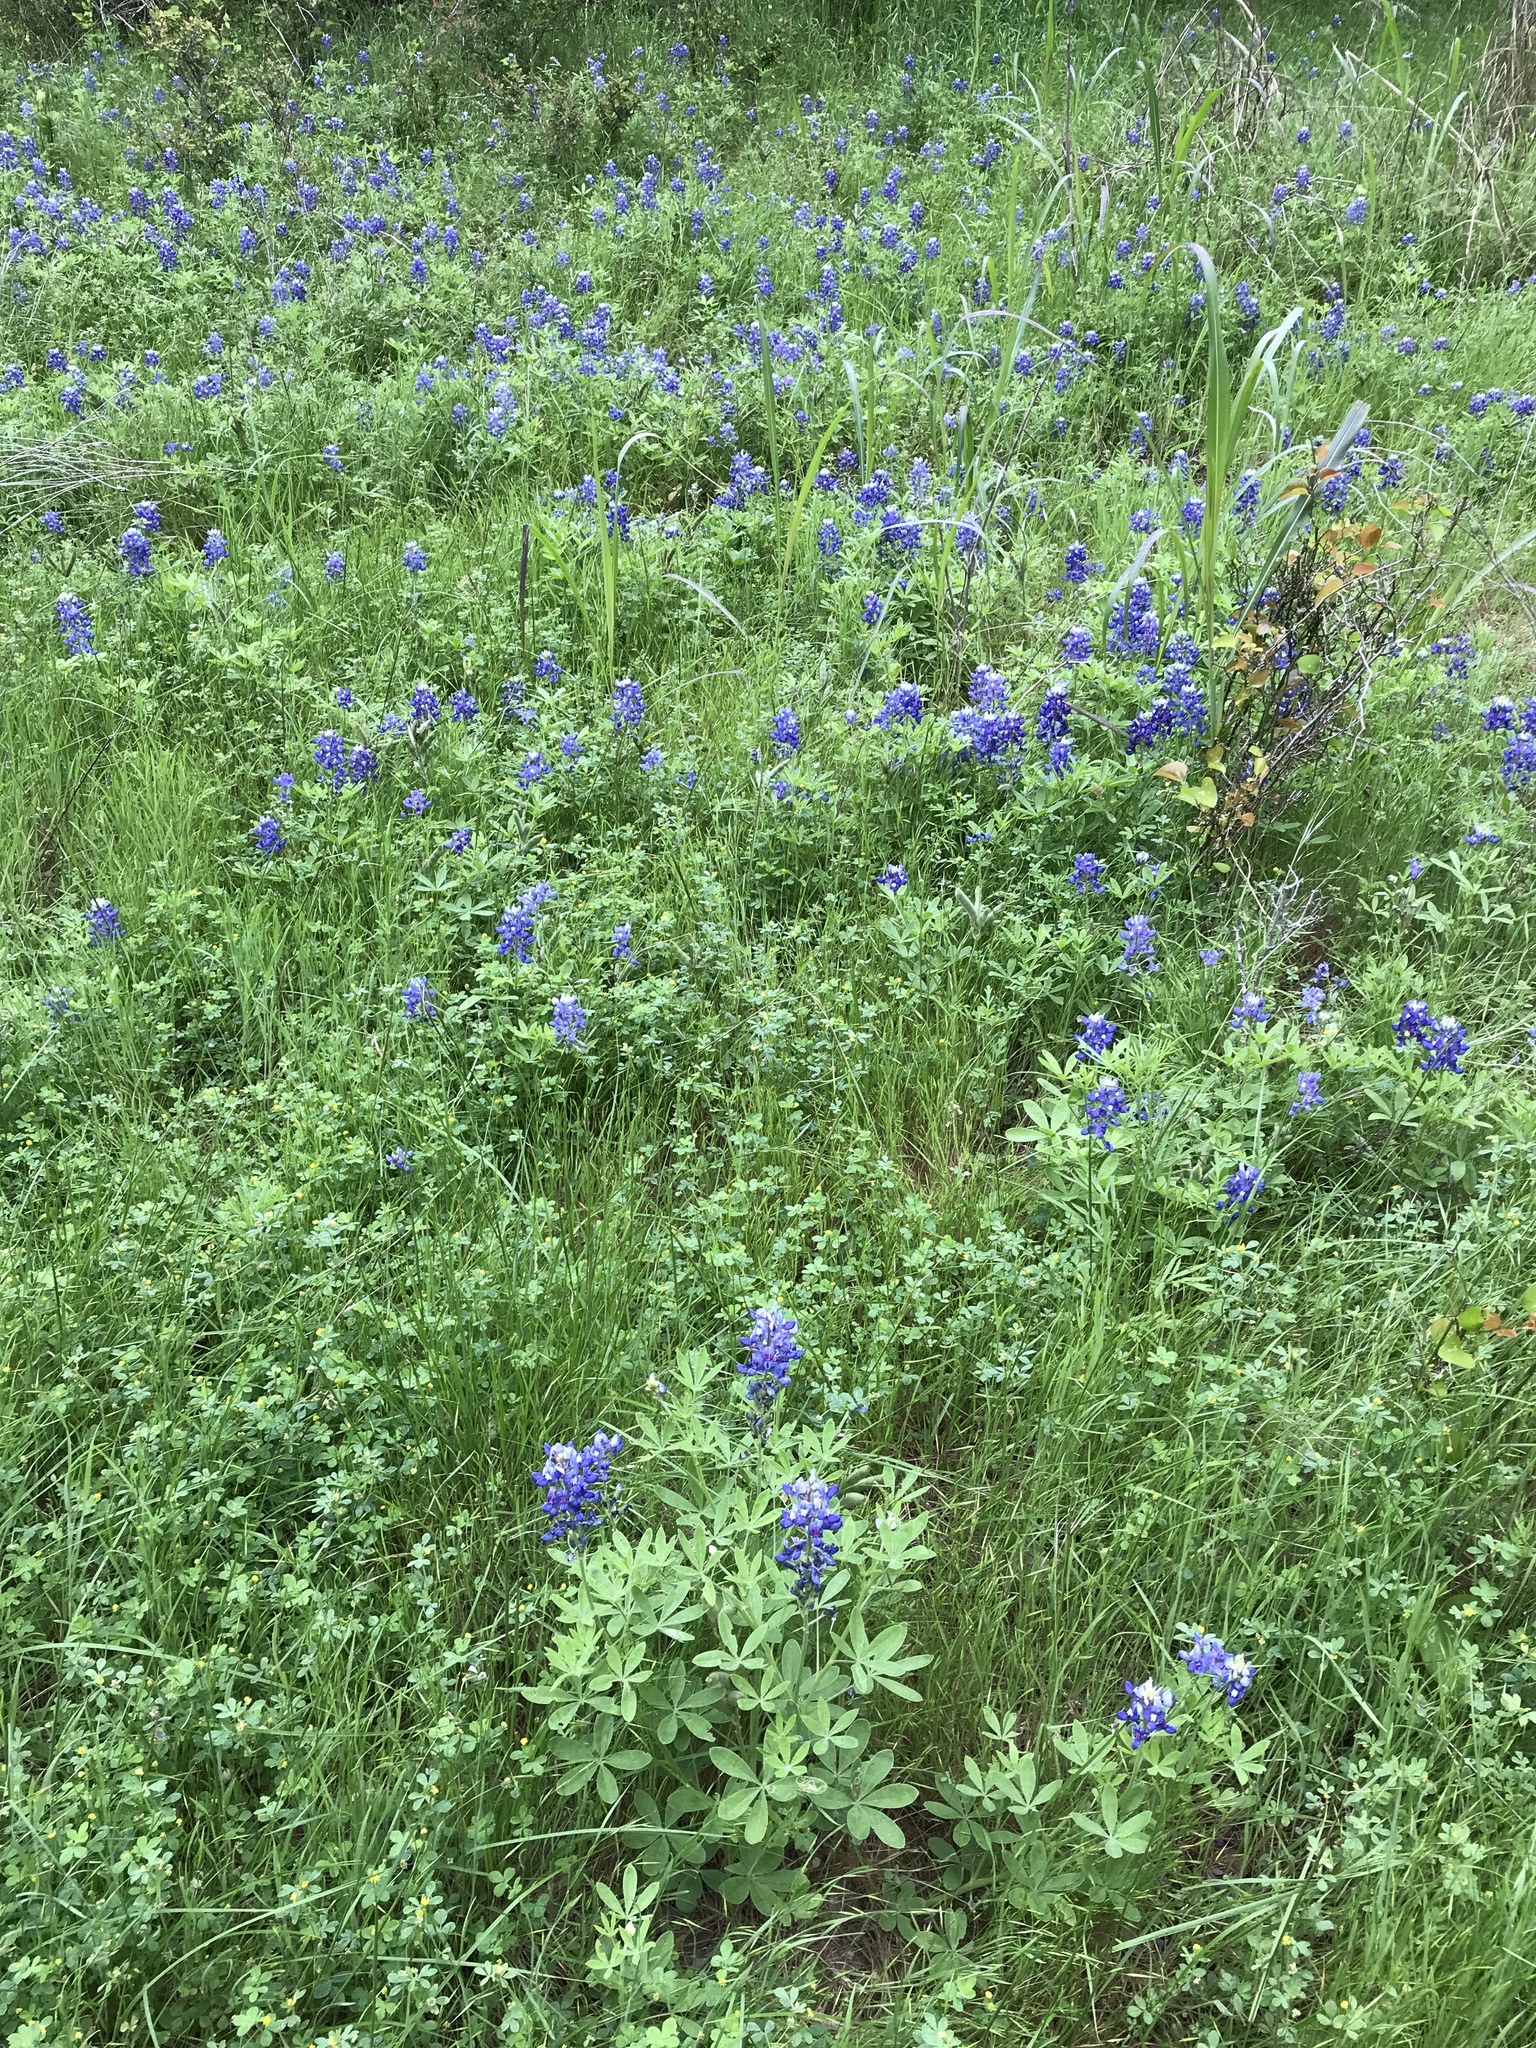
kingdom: Plantae
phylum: Tracheophyta
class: Magnoliopsida
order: Fabales
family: Fabaceae
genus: Lupinus
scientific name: Lupinus texensis
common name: Texas bluebonnet
